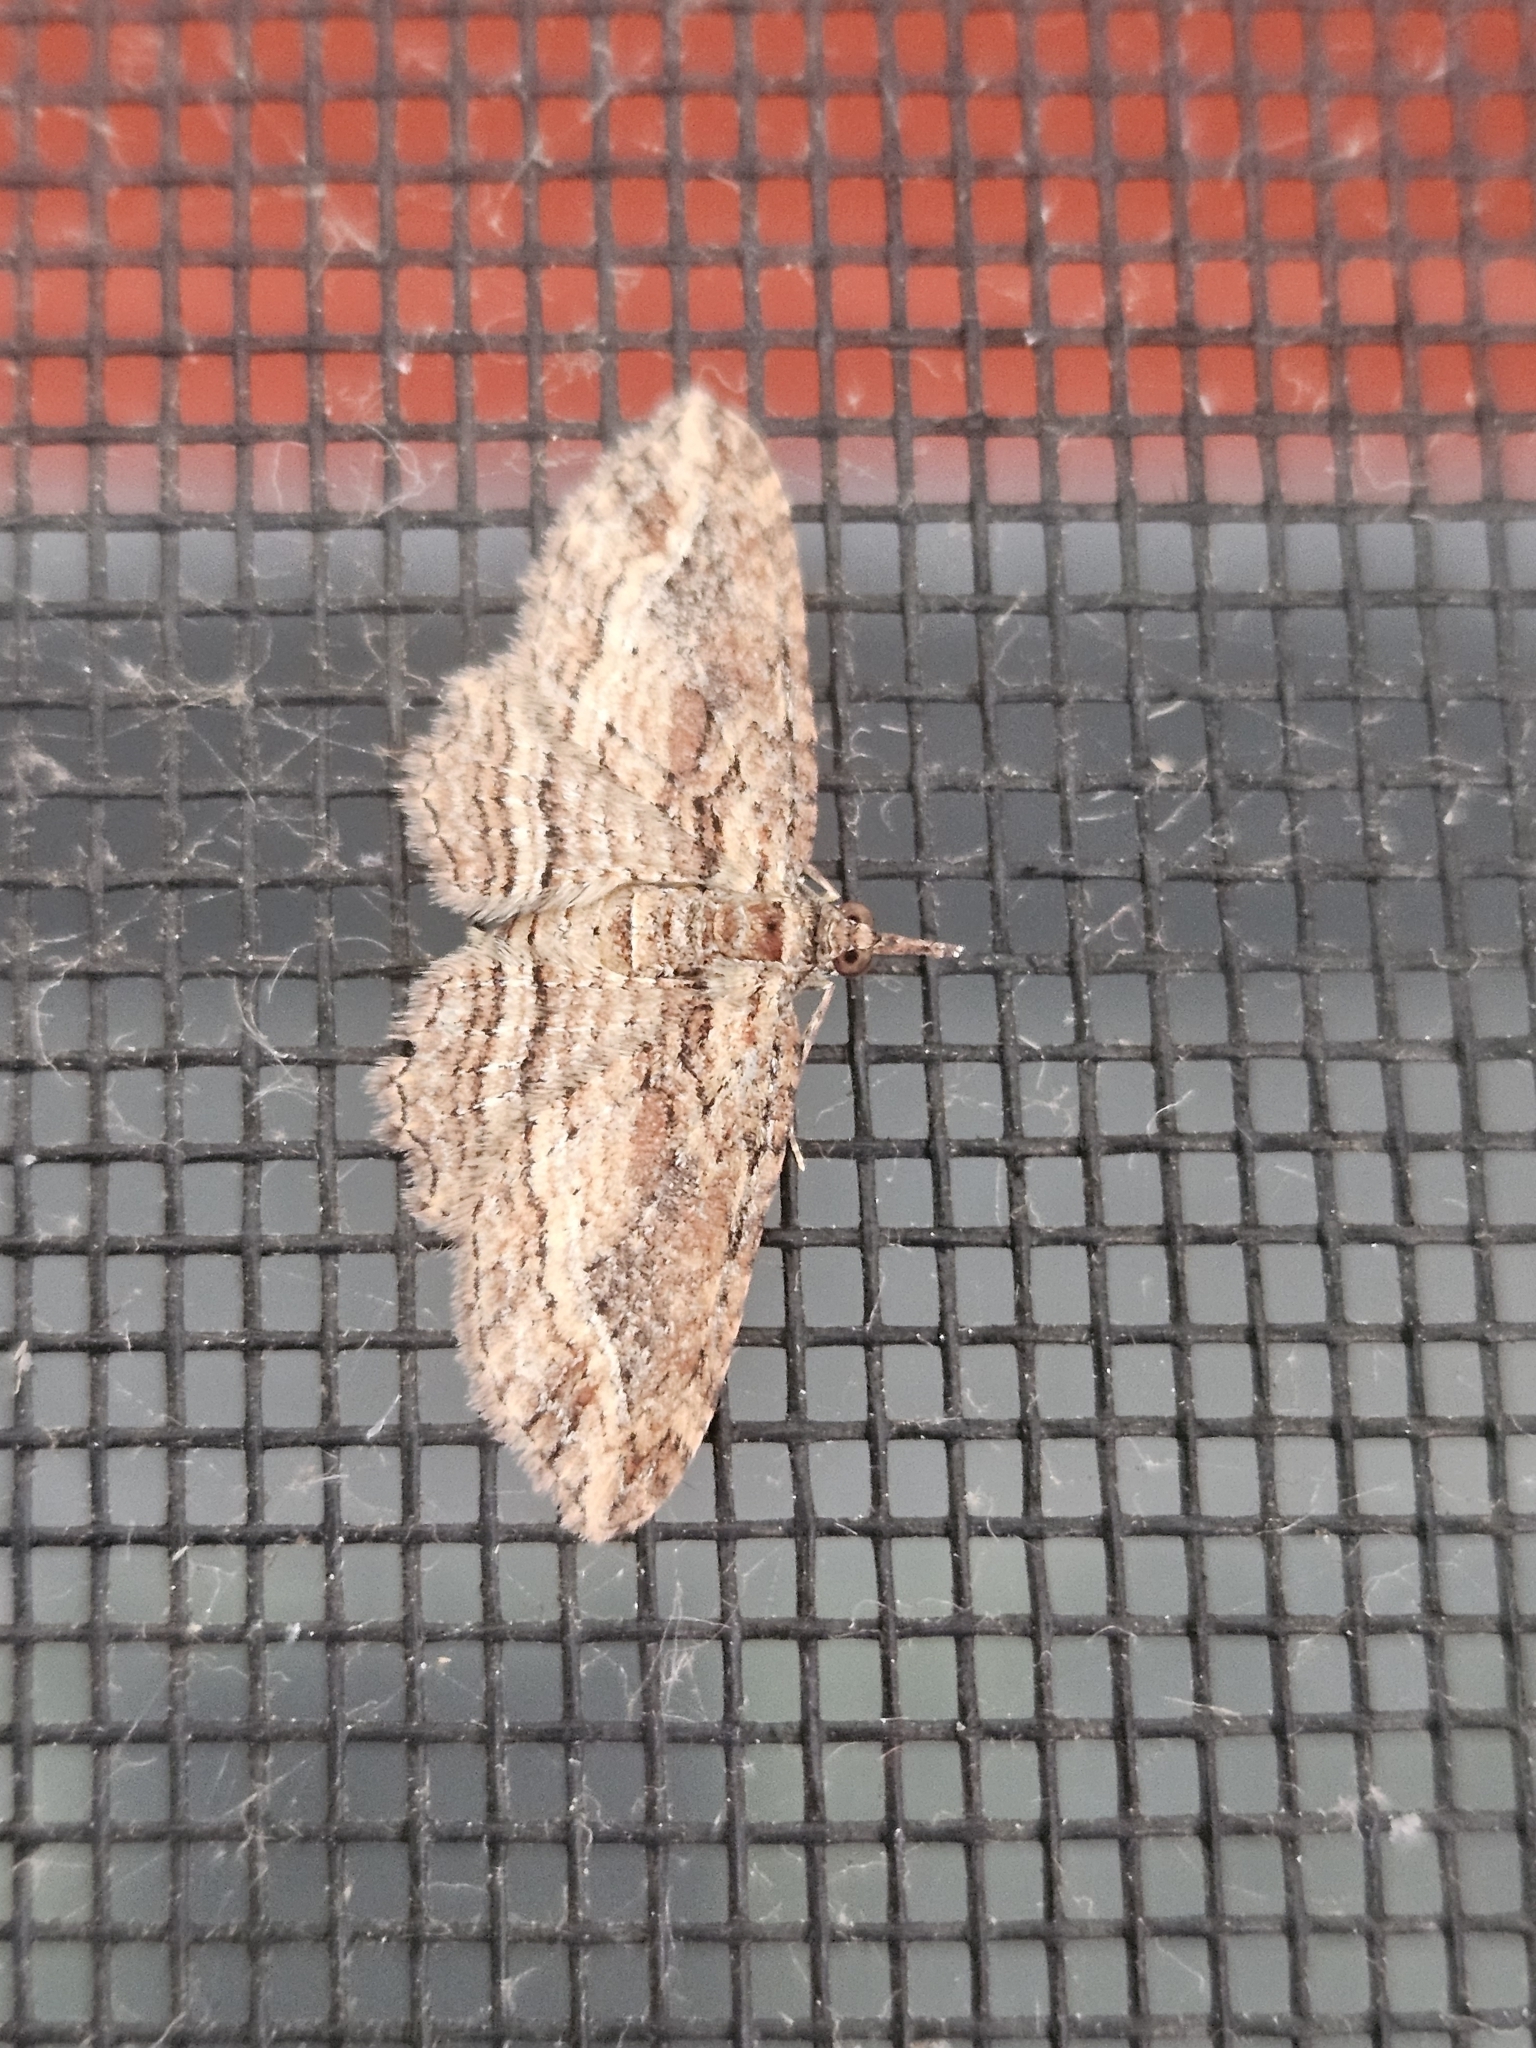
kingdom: Animalia
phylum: Arthropoda
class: Insecta
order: Lepidoptera
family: Geometridae
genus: Chloroclystis
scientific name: Chloroclystis filata
